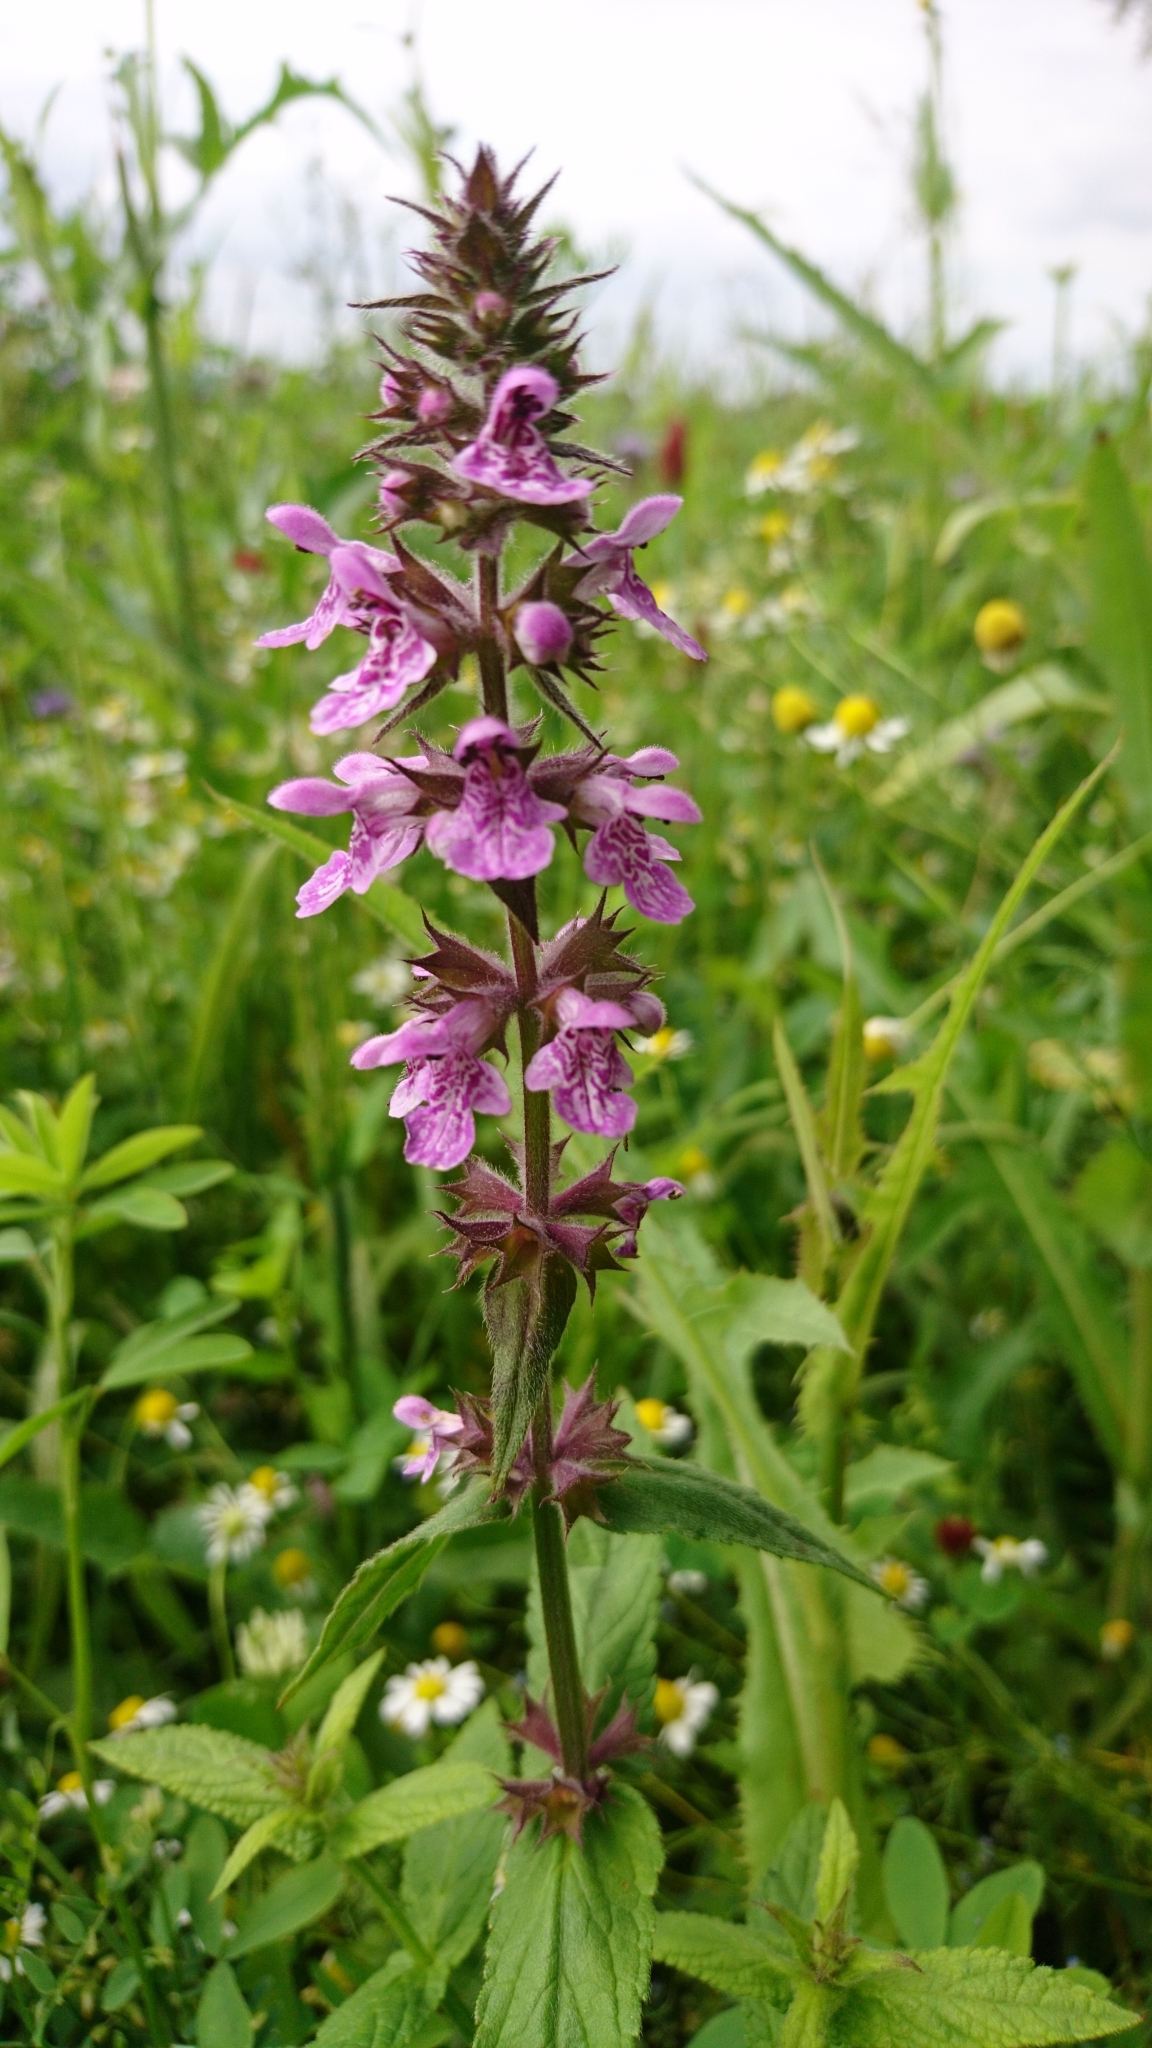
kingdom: Plantae
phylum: Tracheophyta
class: Magnoliopsida
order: Lamiales
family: Lamiaceae
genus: Stachys
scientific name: Stachys palustris
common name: Marsh woundwort
